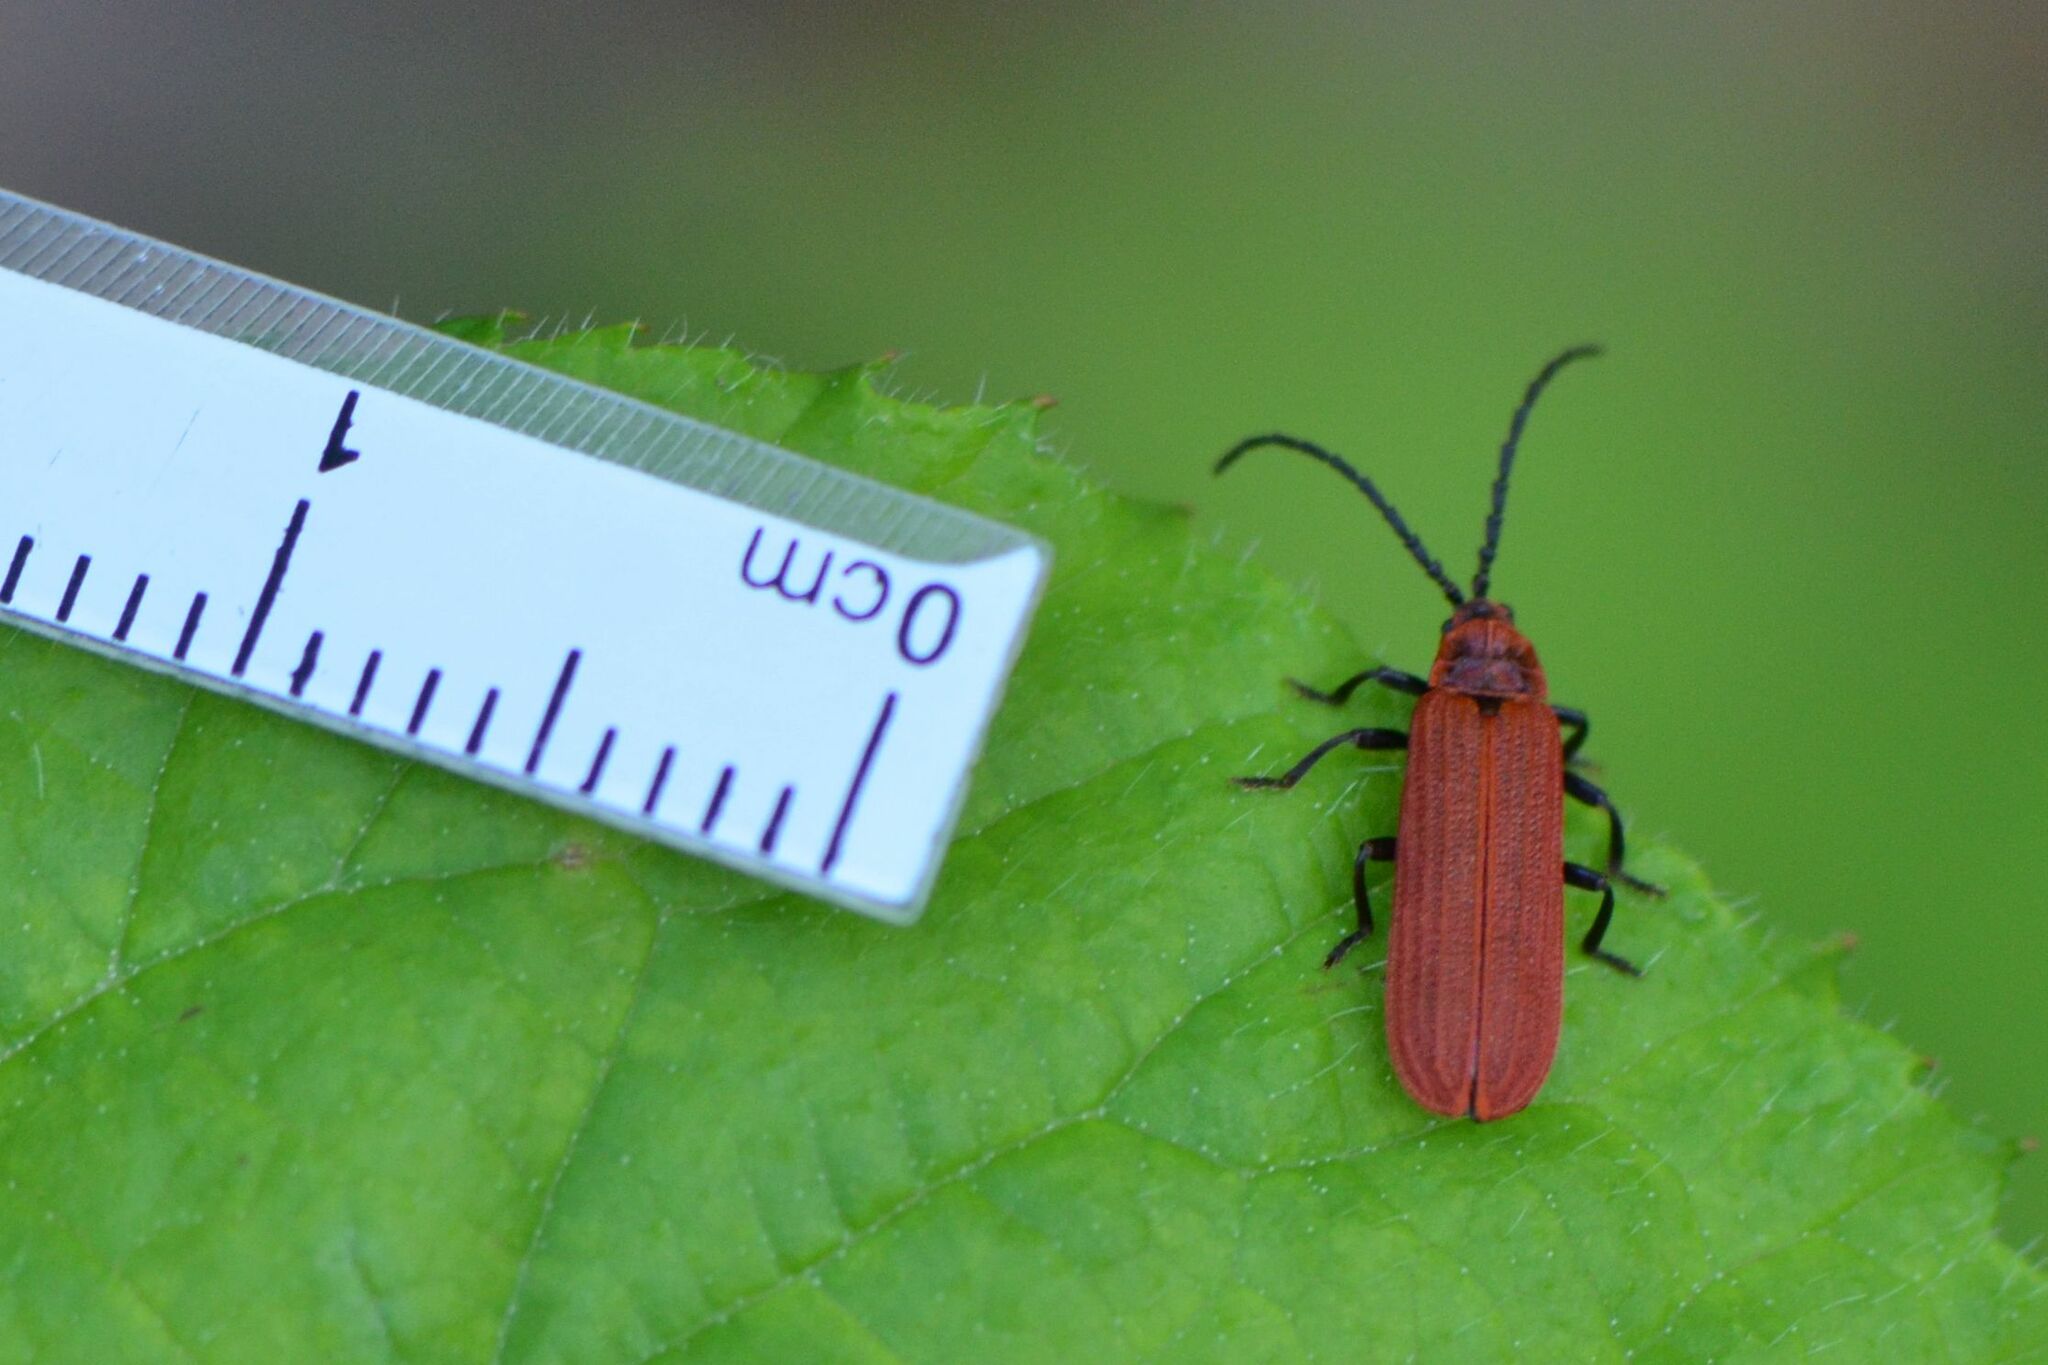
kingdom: Animalia
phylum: Arthropoda
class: Insecta
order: Coleoptera
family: Lycidae
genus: Lopheros
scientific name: Lopheros rubens
